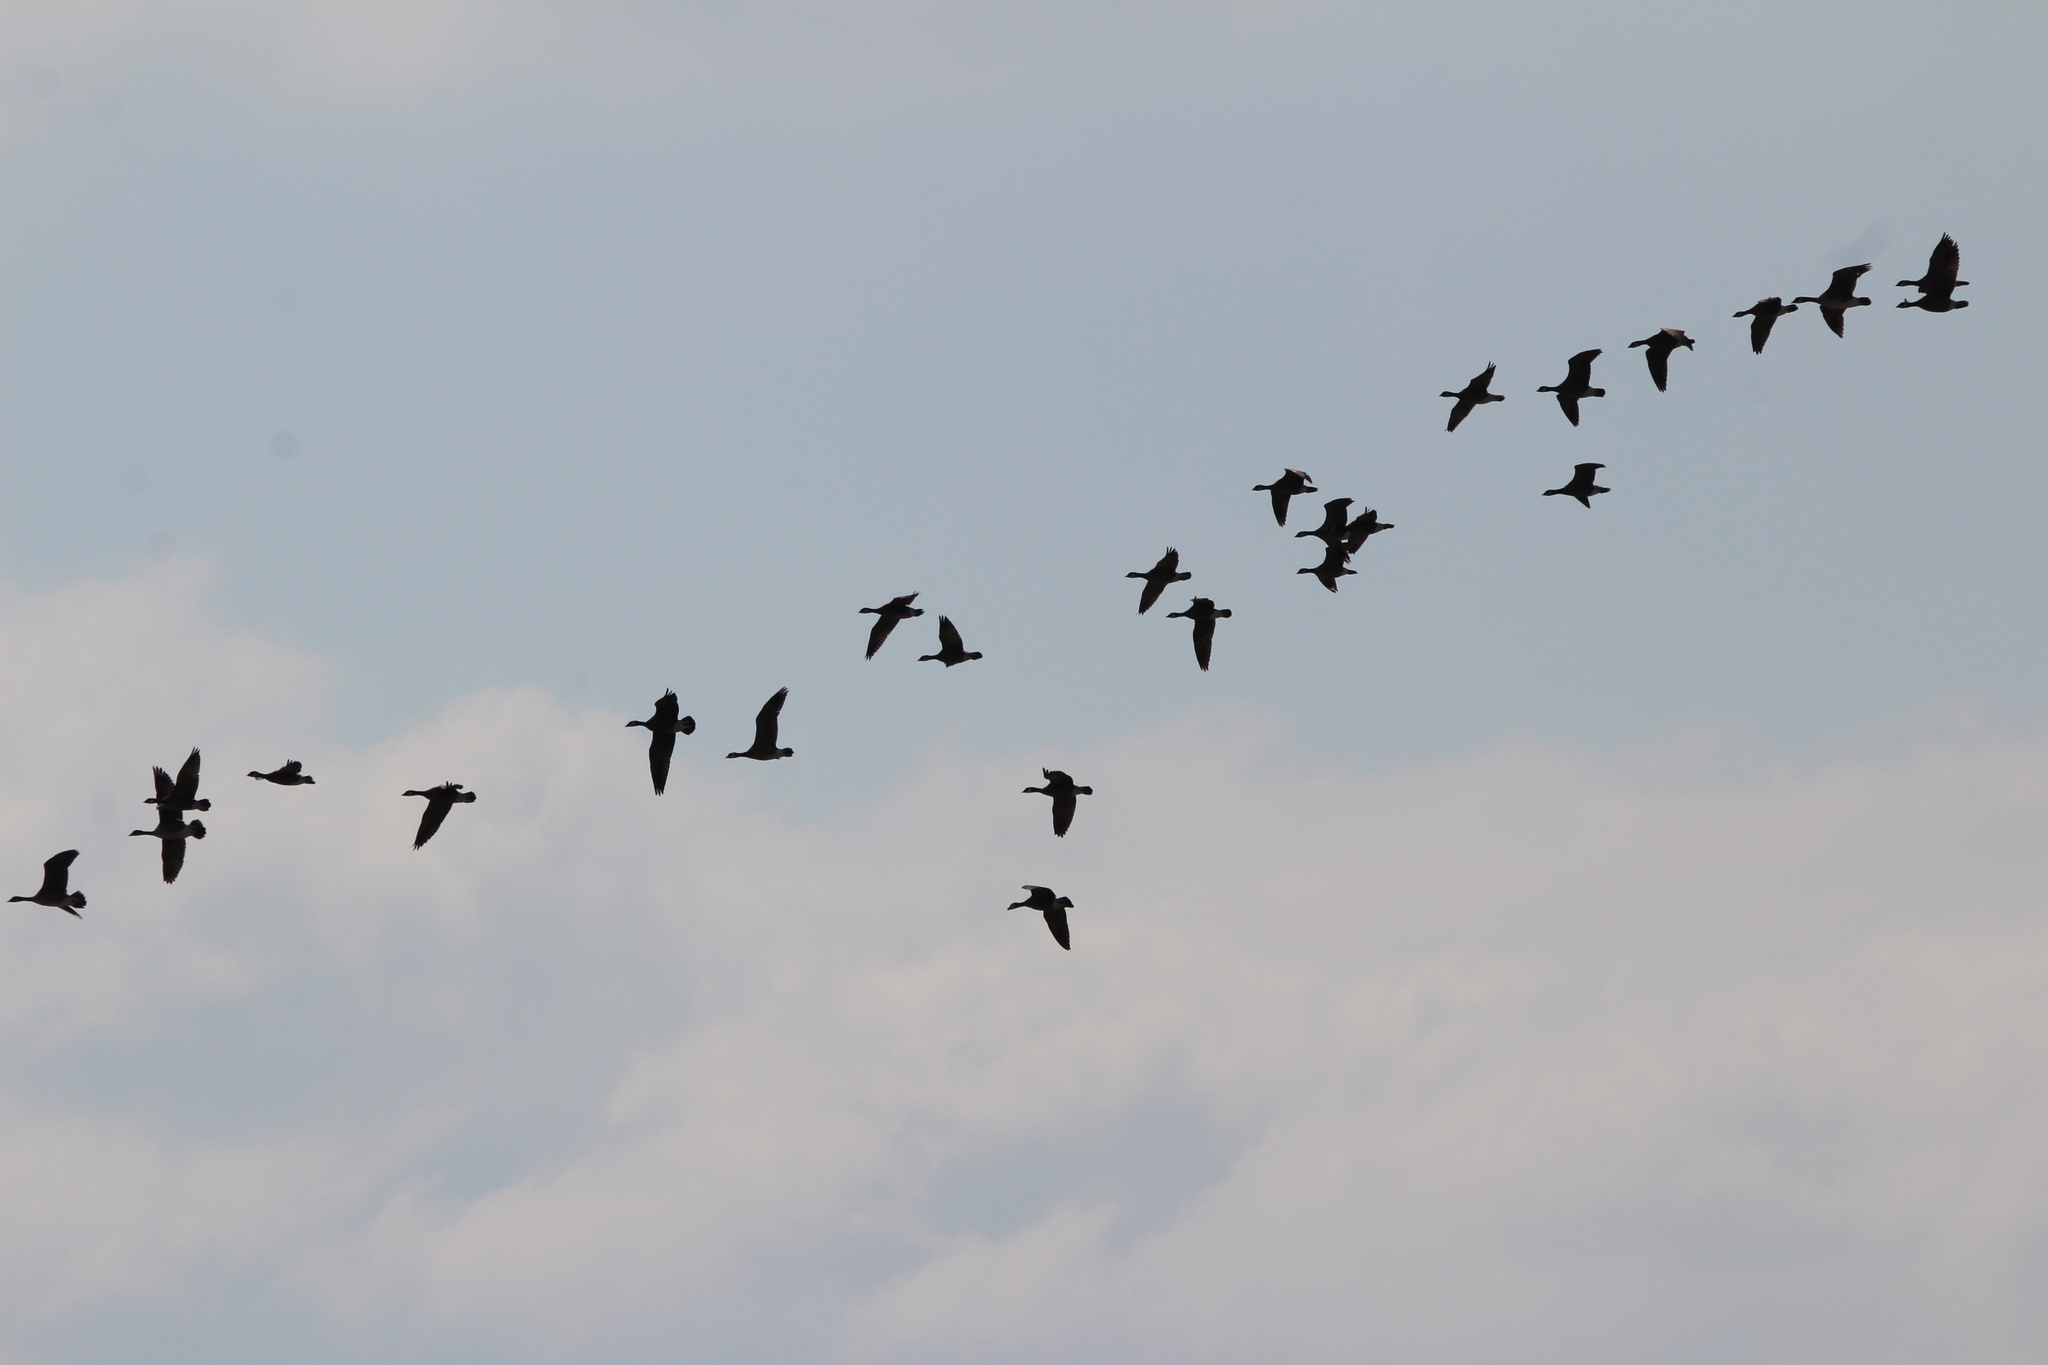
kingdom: Animalia
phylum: Chordata
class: Aves
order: Anseriformes
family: Anatidae
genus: Branta
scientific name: Branta hutchinsii
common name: Cackling goose
